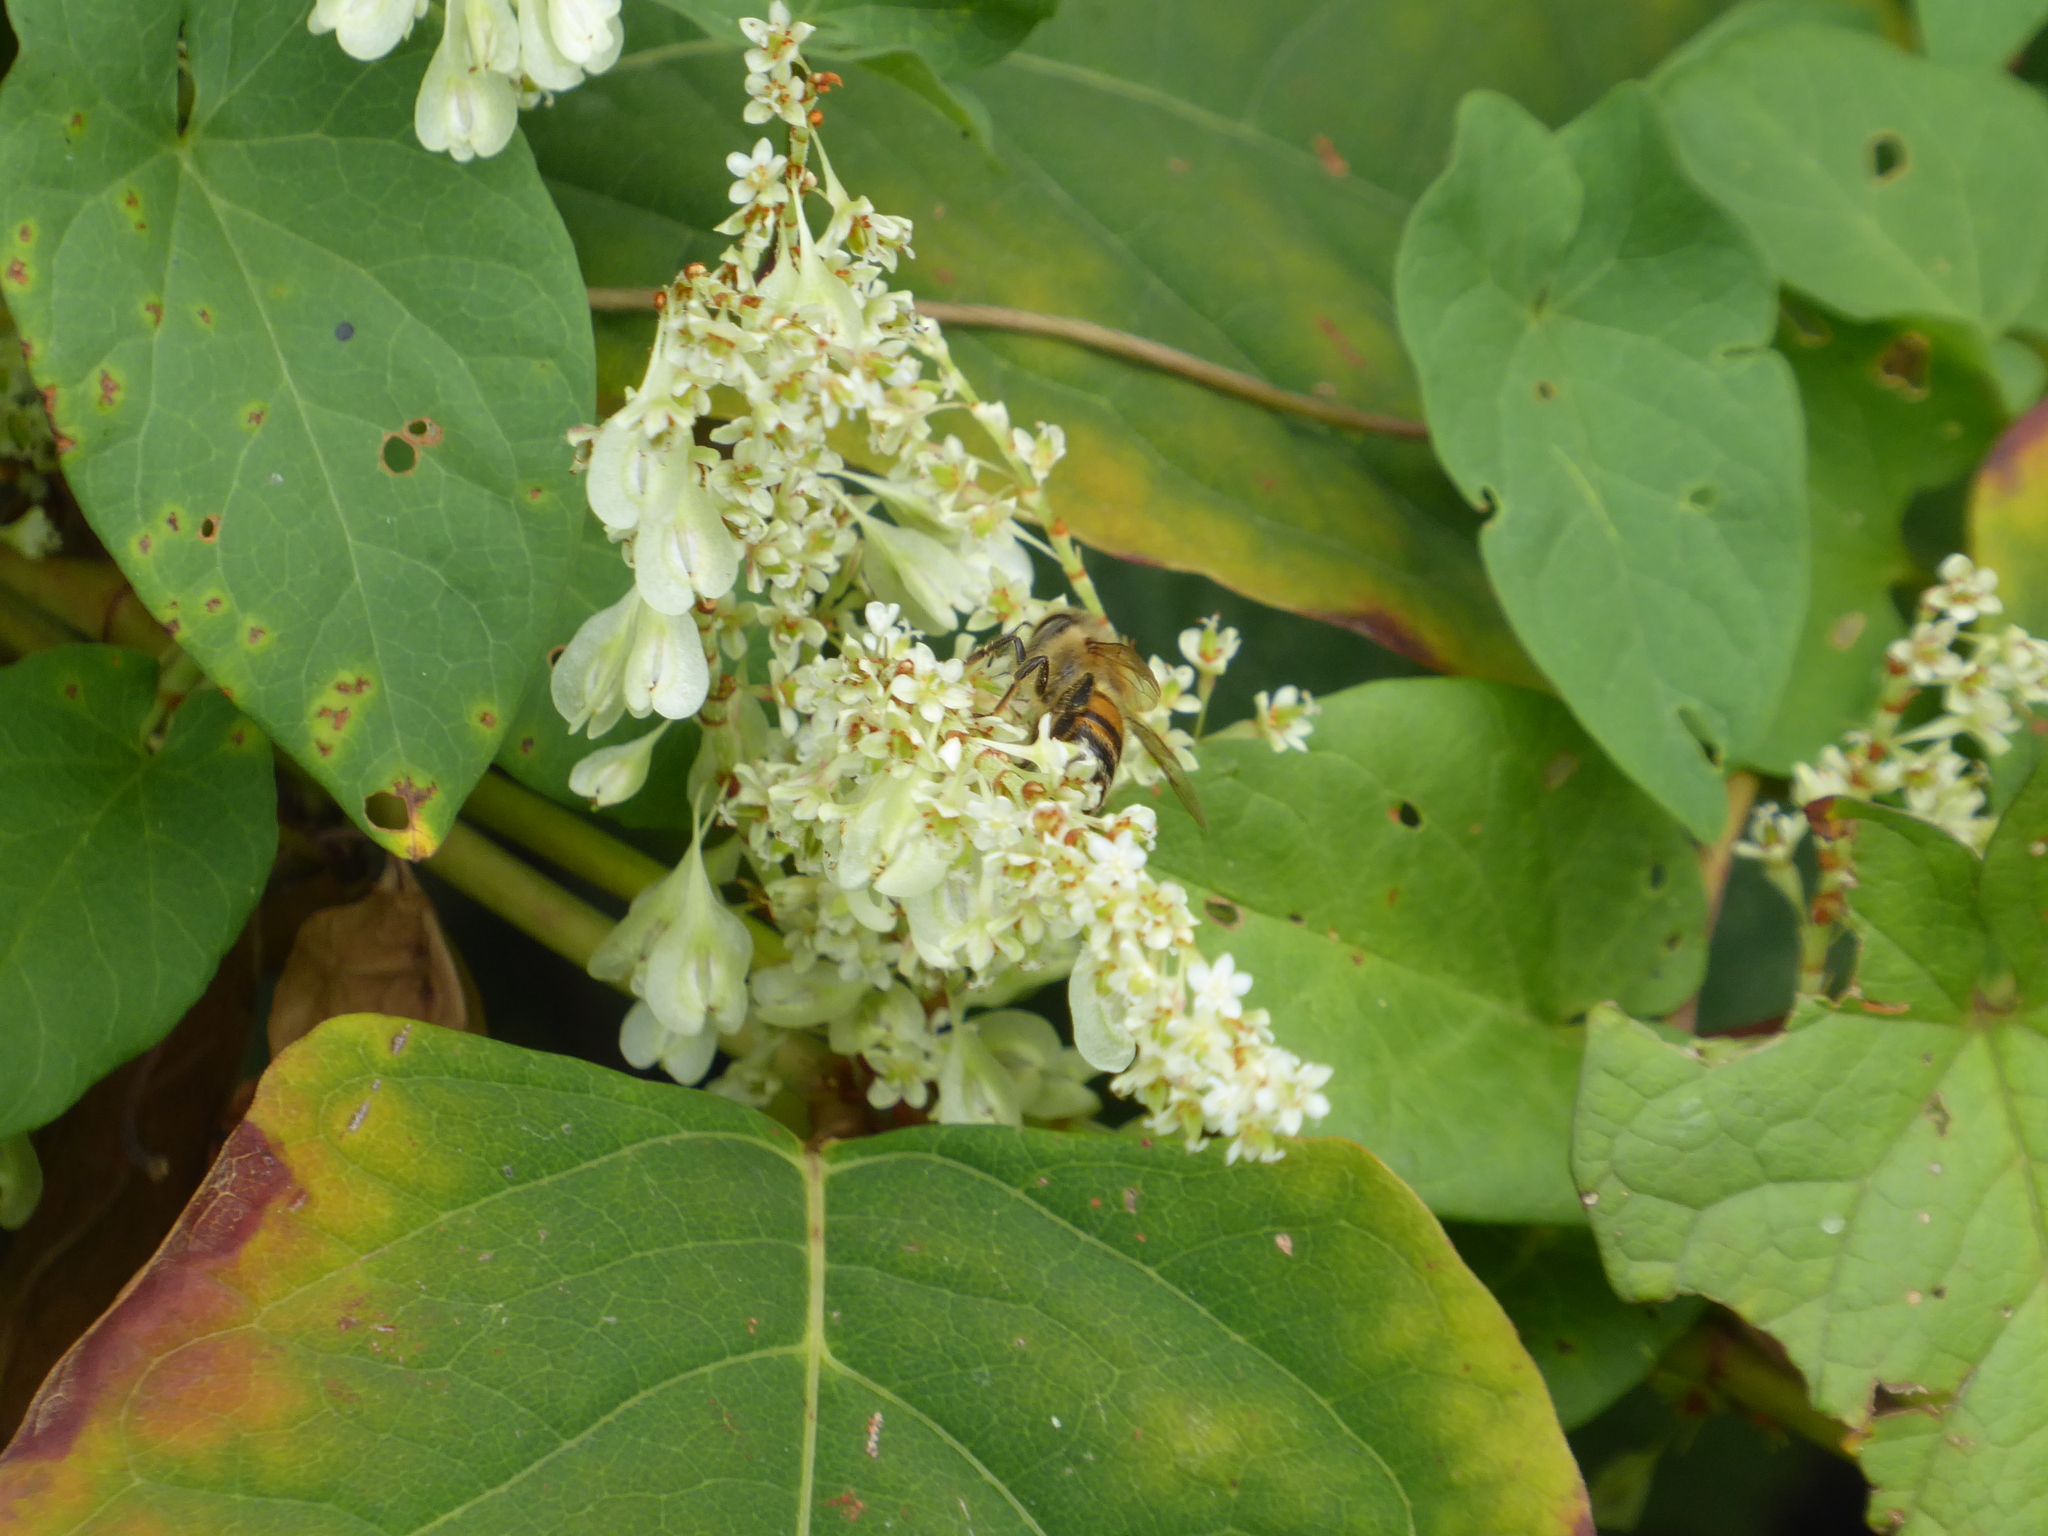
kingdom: Animalia
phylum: Arthropoda
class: Insecta
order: Hymenoptera
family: Apidae
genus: Apis
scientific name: Apis mellifera
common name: Honey bee
